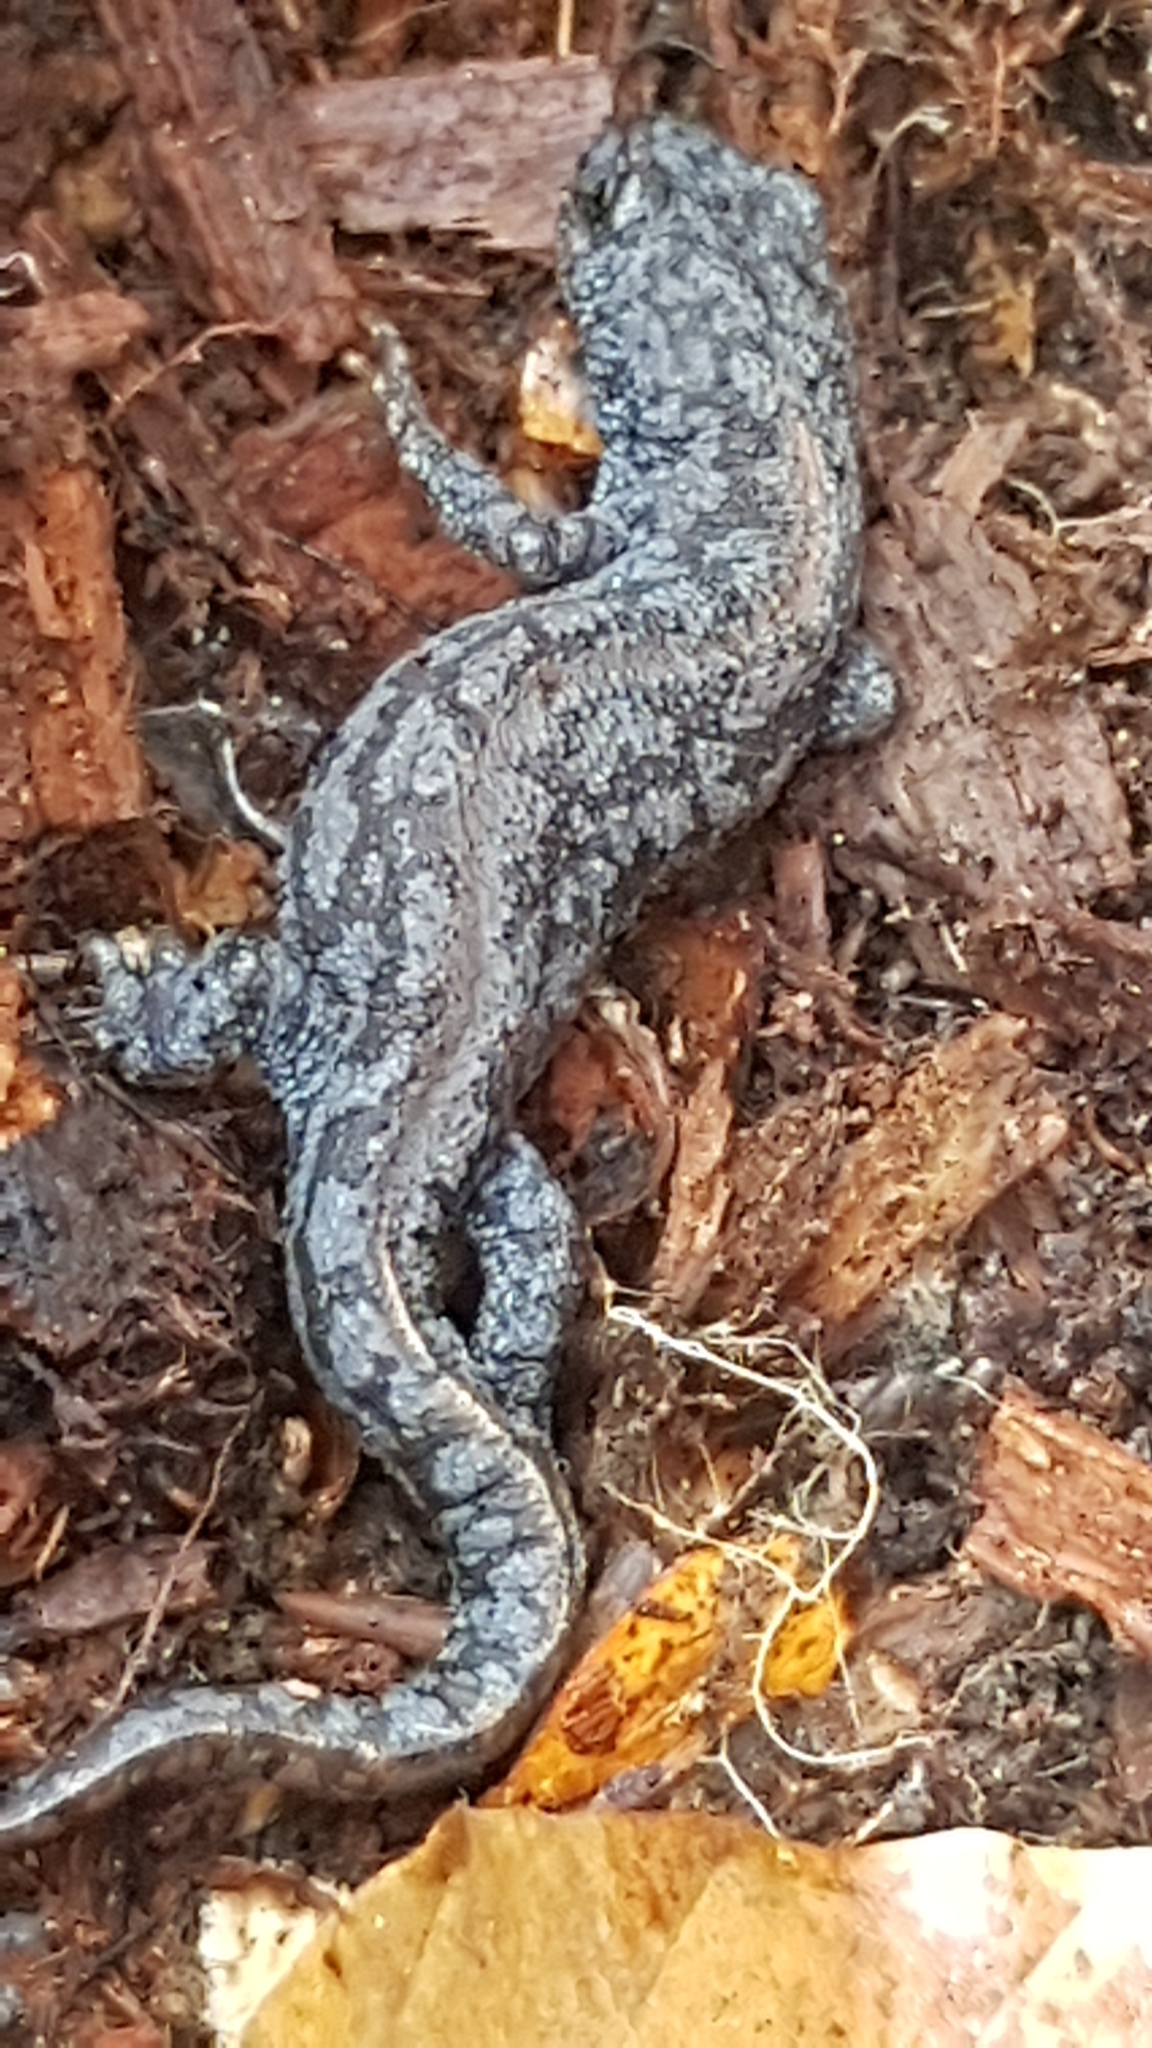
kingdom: Animalia
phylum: Chordata
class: Amphibia
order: Caudata
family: Salamandridae
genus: Ichthyosaura
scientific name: Ichthyosaura alpestris
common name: Alpine newt
